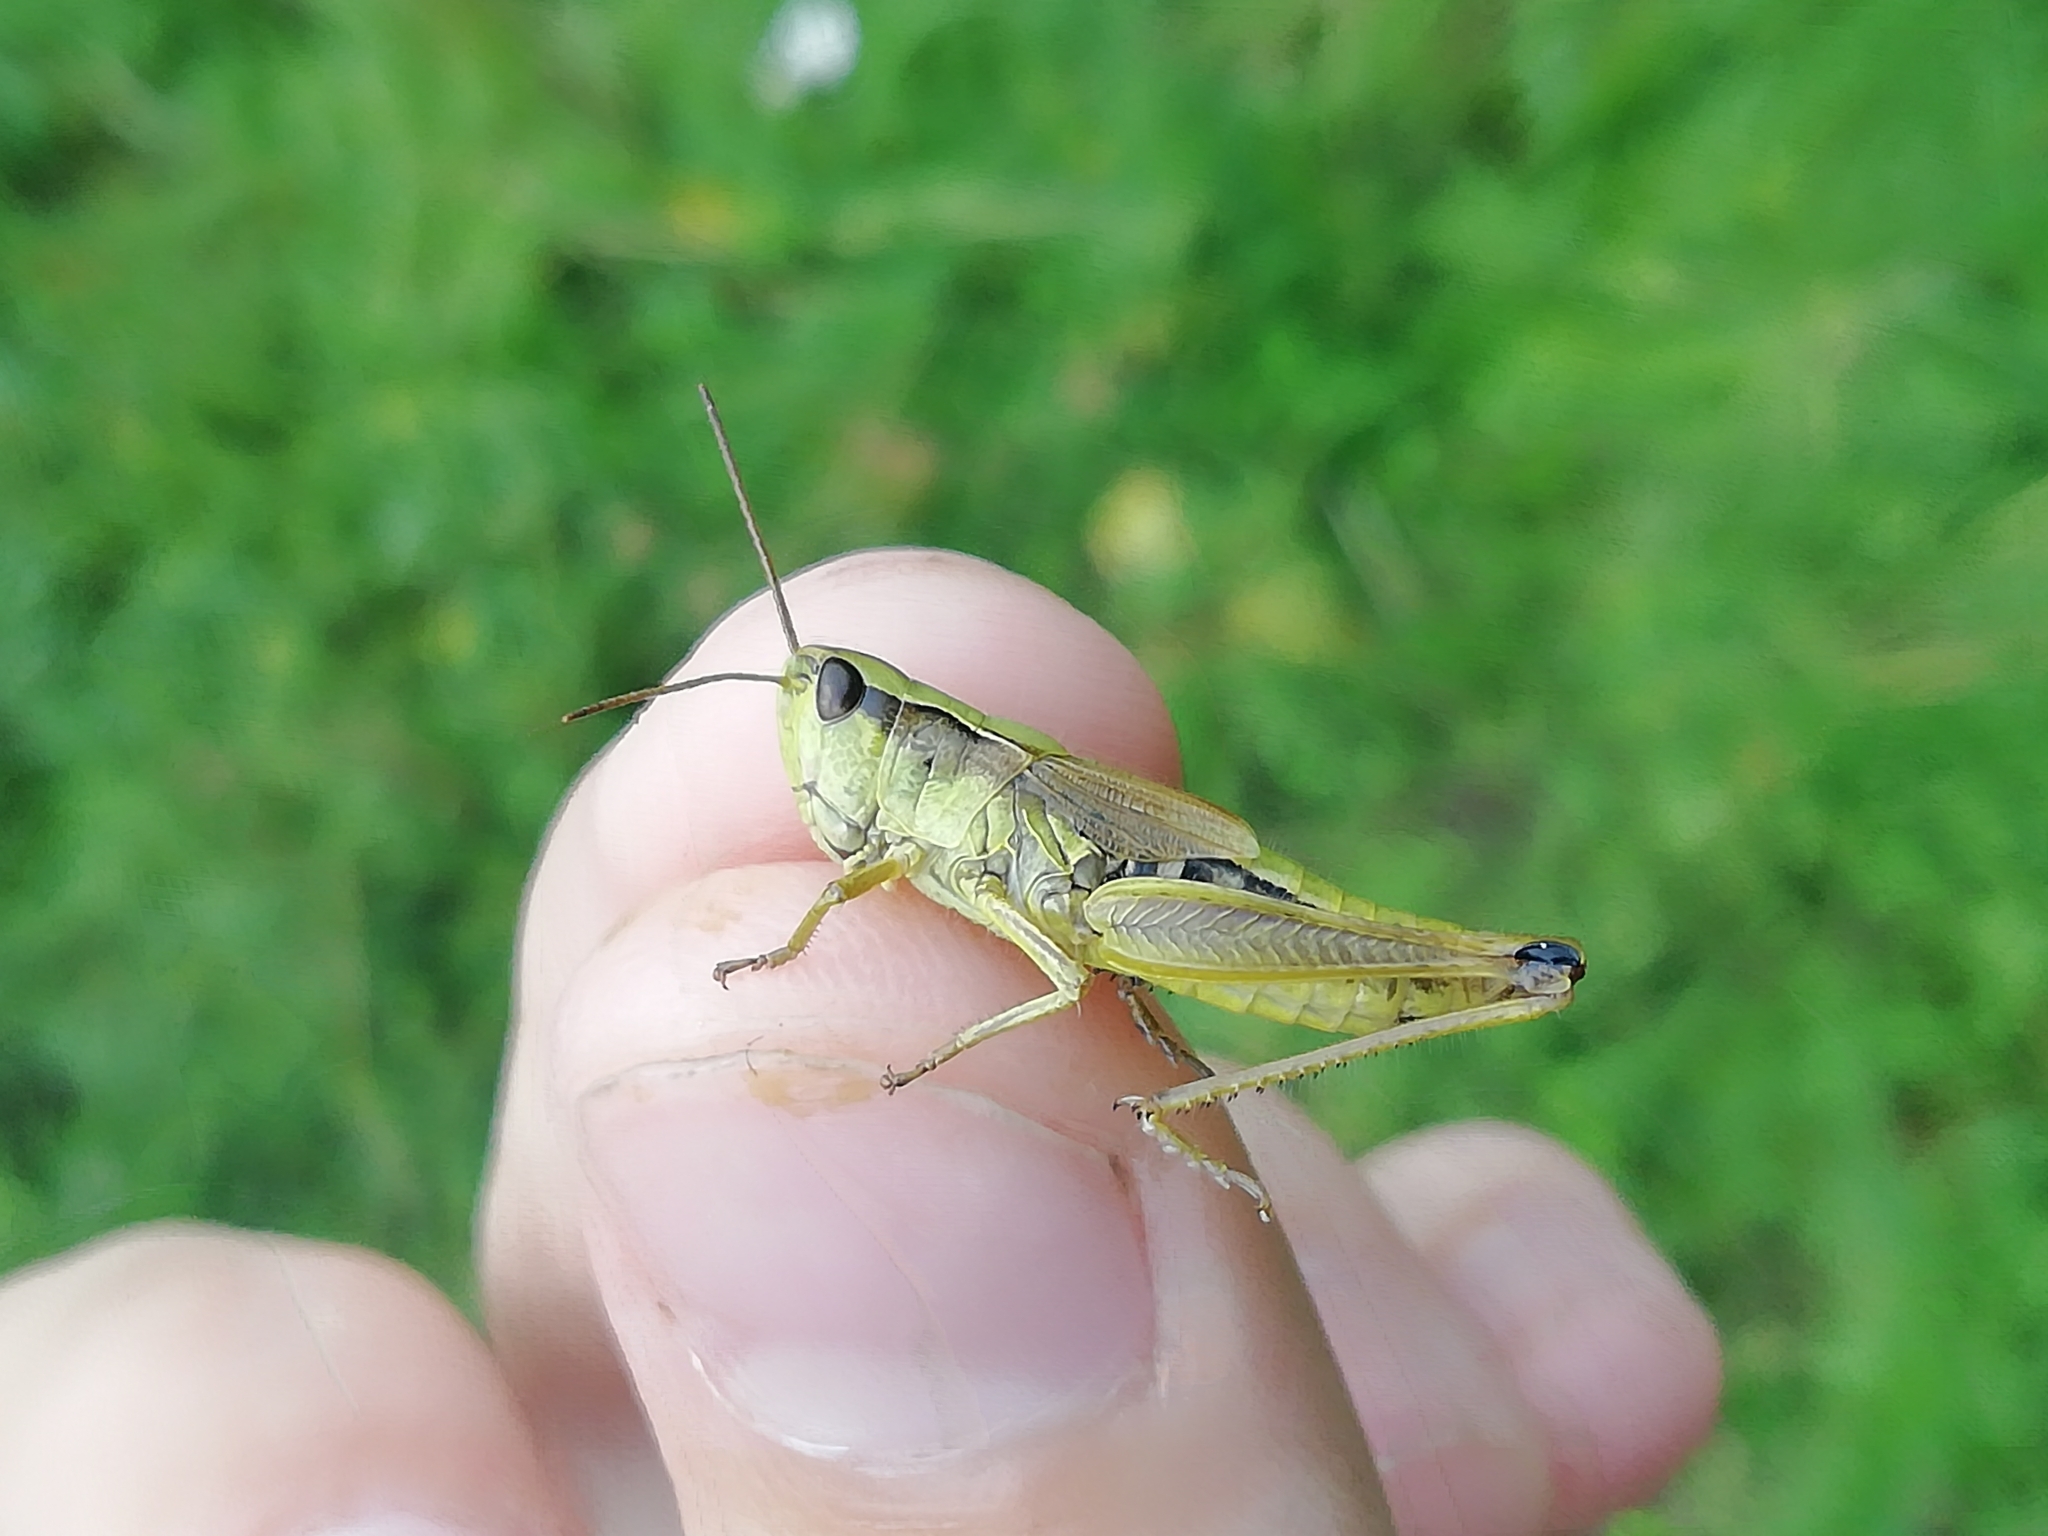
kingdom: Animalia
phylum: Arthropoda
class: Insecta
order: Orthoptera
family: Acrididae
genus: Chorthippus
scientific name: Chorthippus fallax
